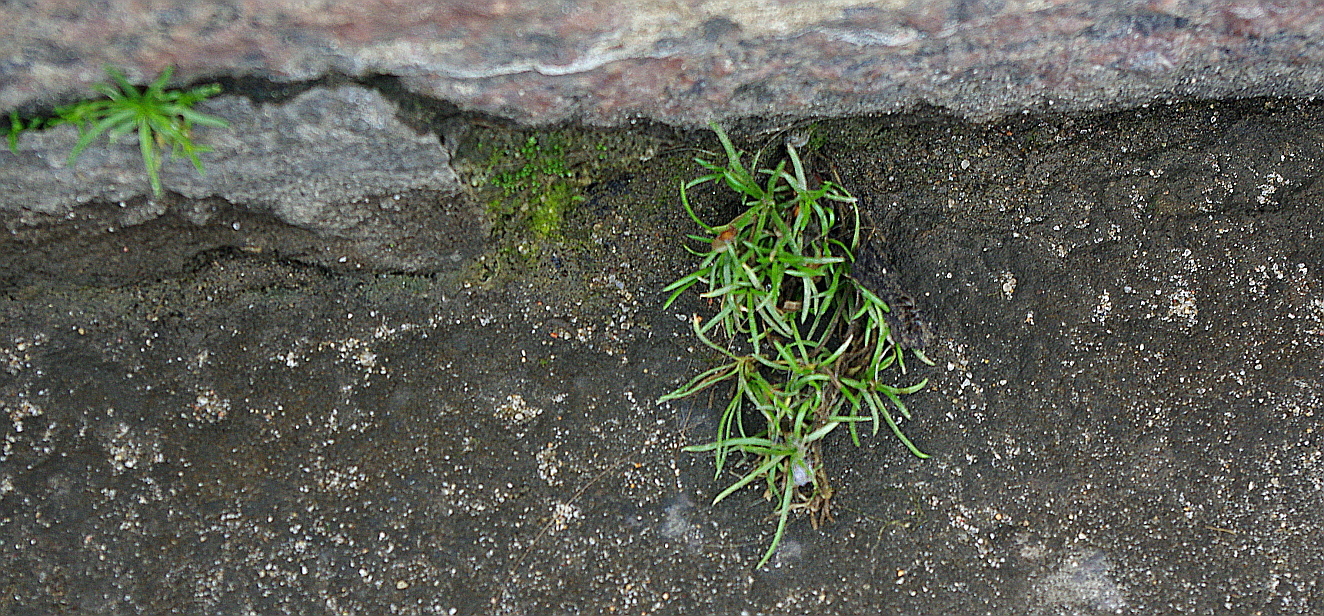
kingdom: Plantae
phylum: Tracheophyta
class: Magnoliopsida
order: Caryophyllales
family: Caryophyllaceae
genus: Sagina
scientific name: Sagina procumbens
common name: Procumbent pearlwort
